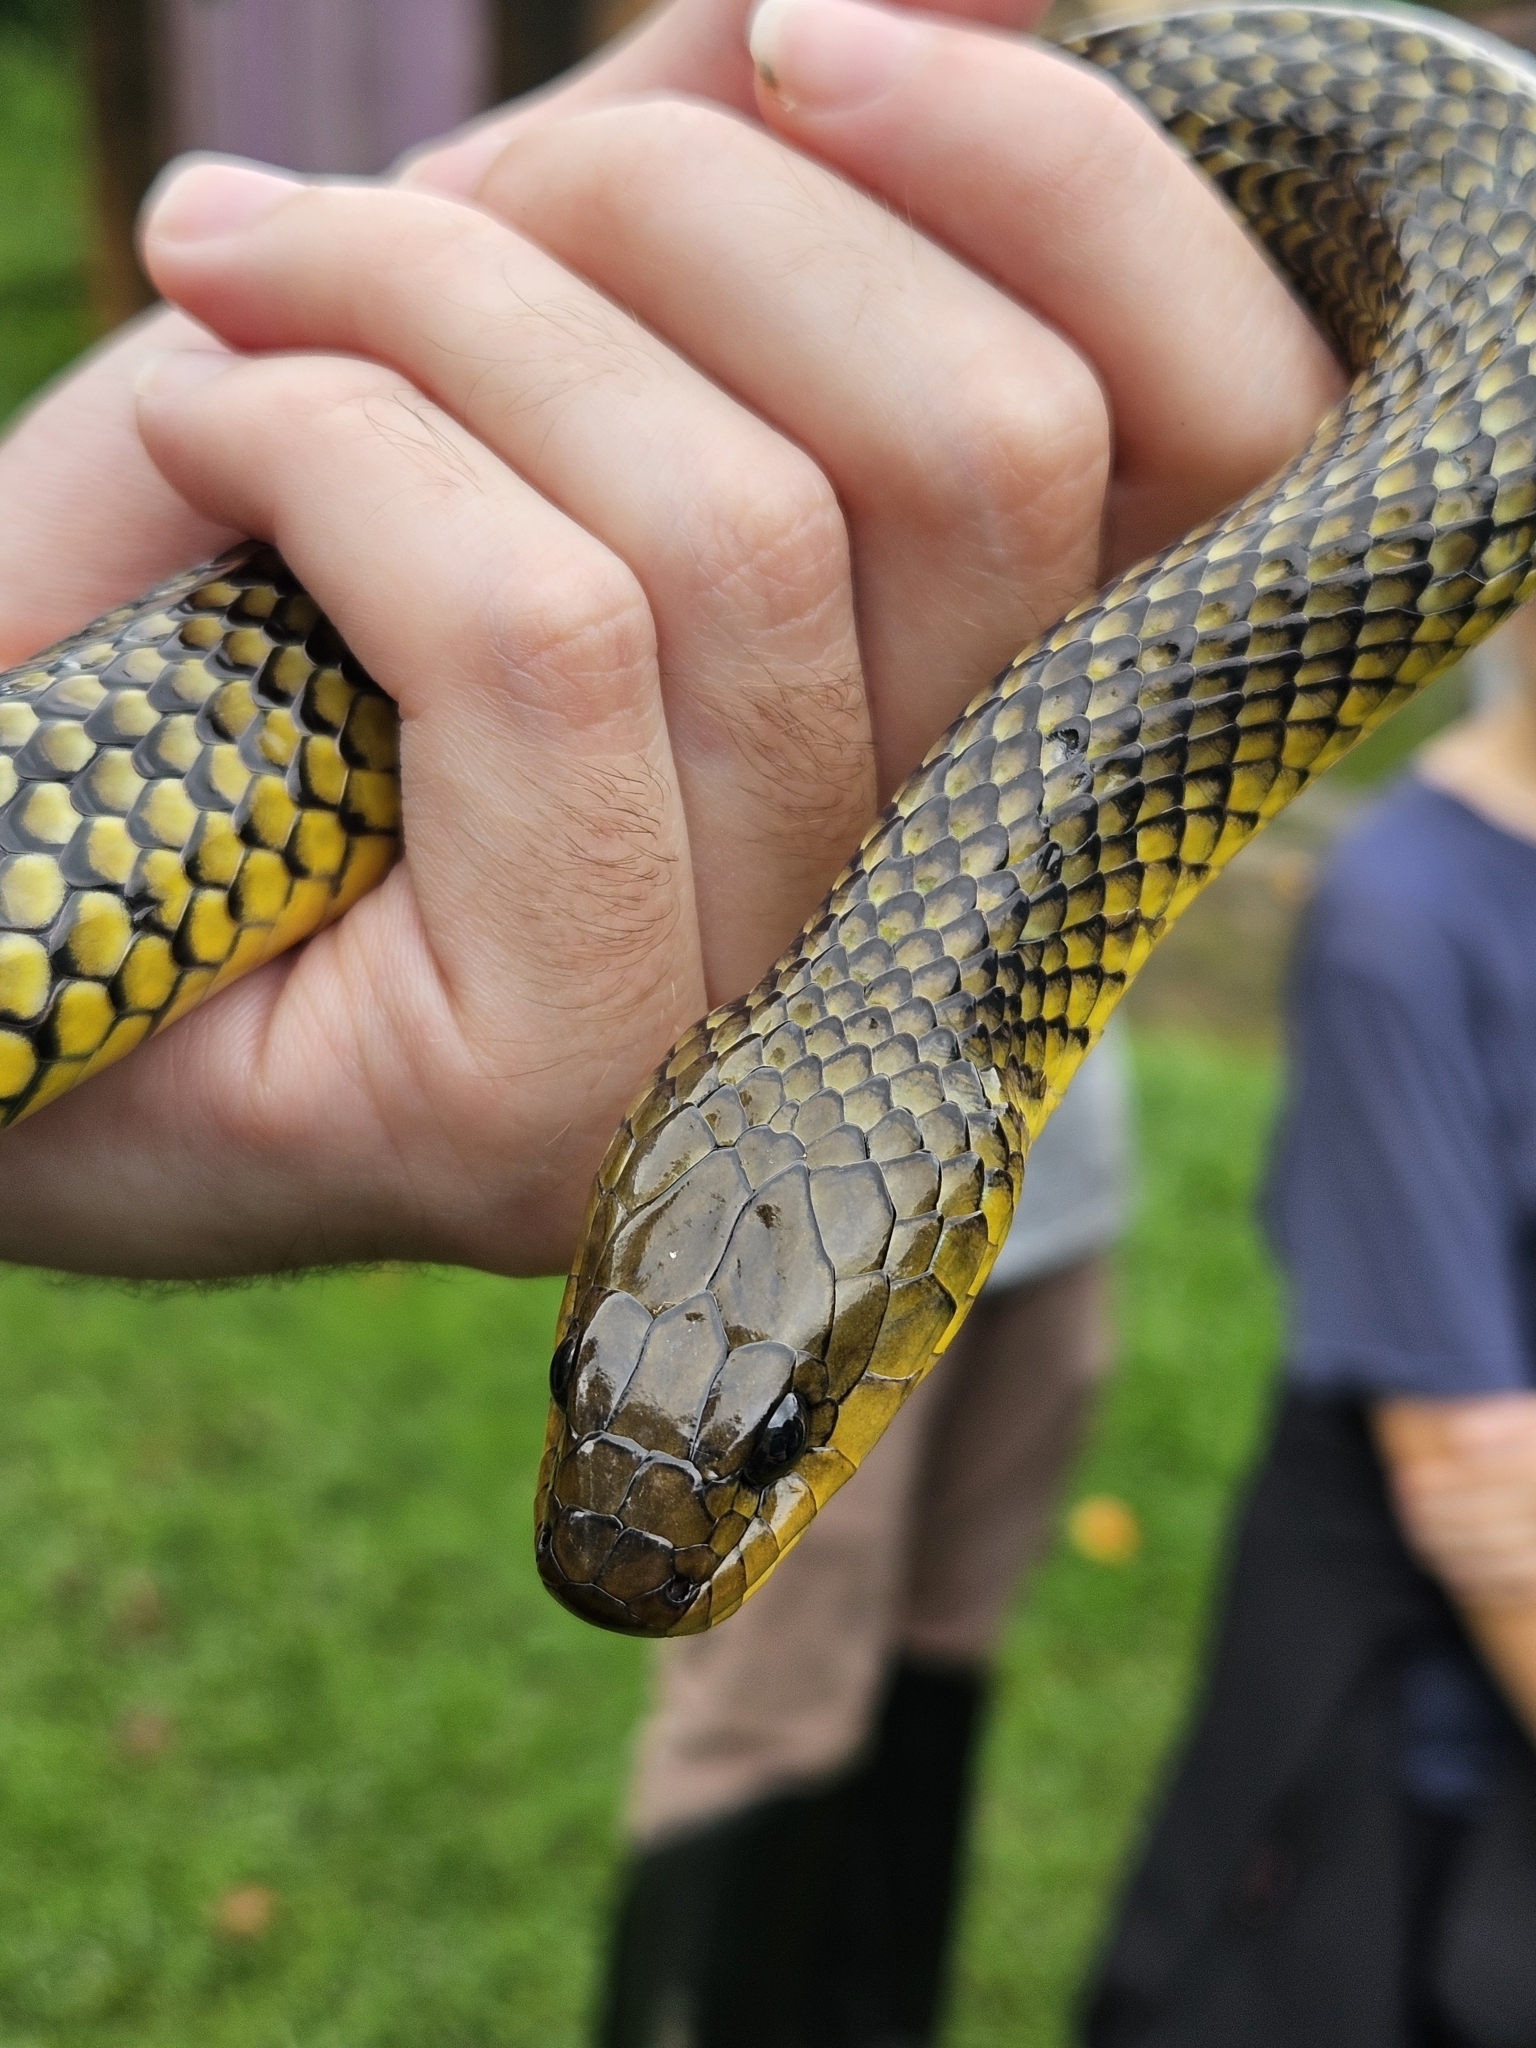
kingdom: Animalia
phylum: Chordata
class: Squamata
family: Colubridae
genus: Erythrolamprus
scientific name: Erythrolamprus miliaris
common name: Military ground snake
